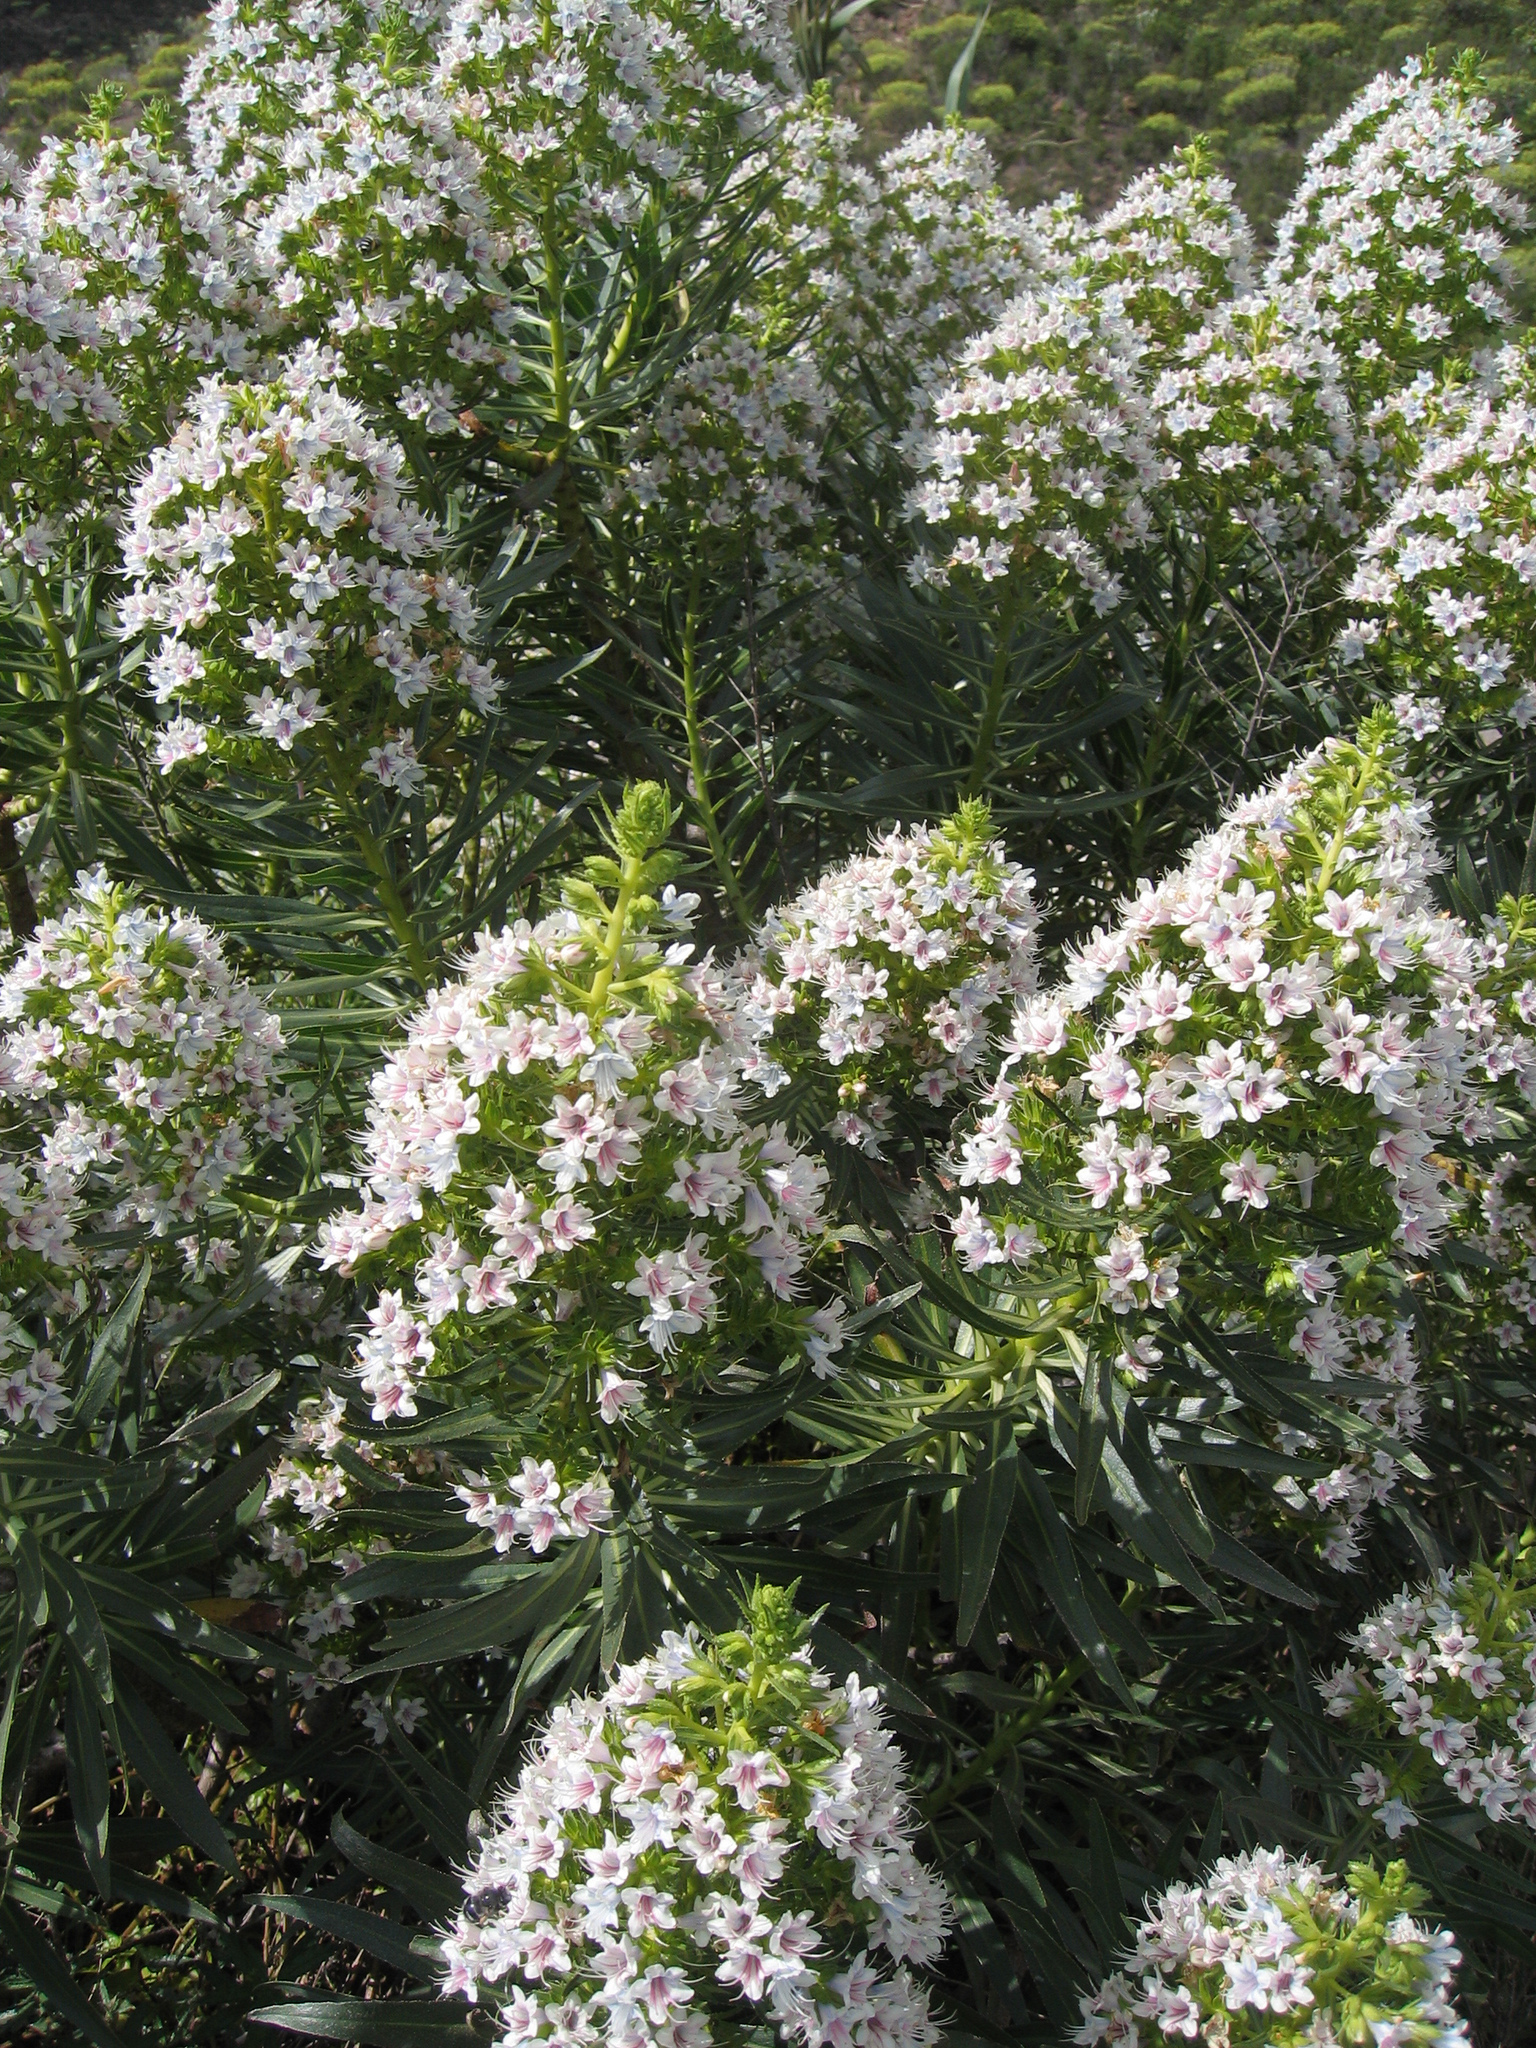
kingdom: Plantae
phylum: Tracheophyta
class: Magnoliopsida
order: Boraginales
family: Boraginaceae
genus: Echium
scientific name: Echium decaisnei
